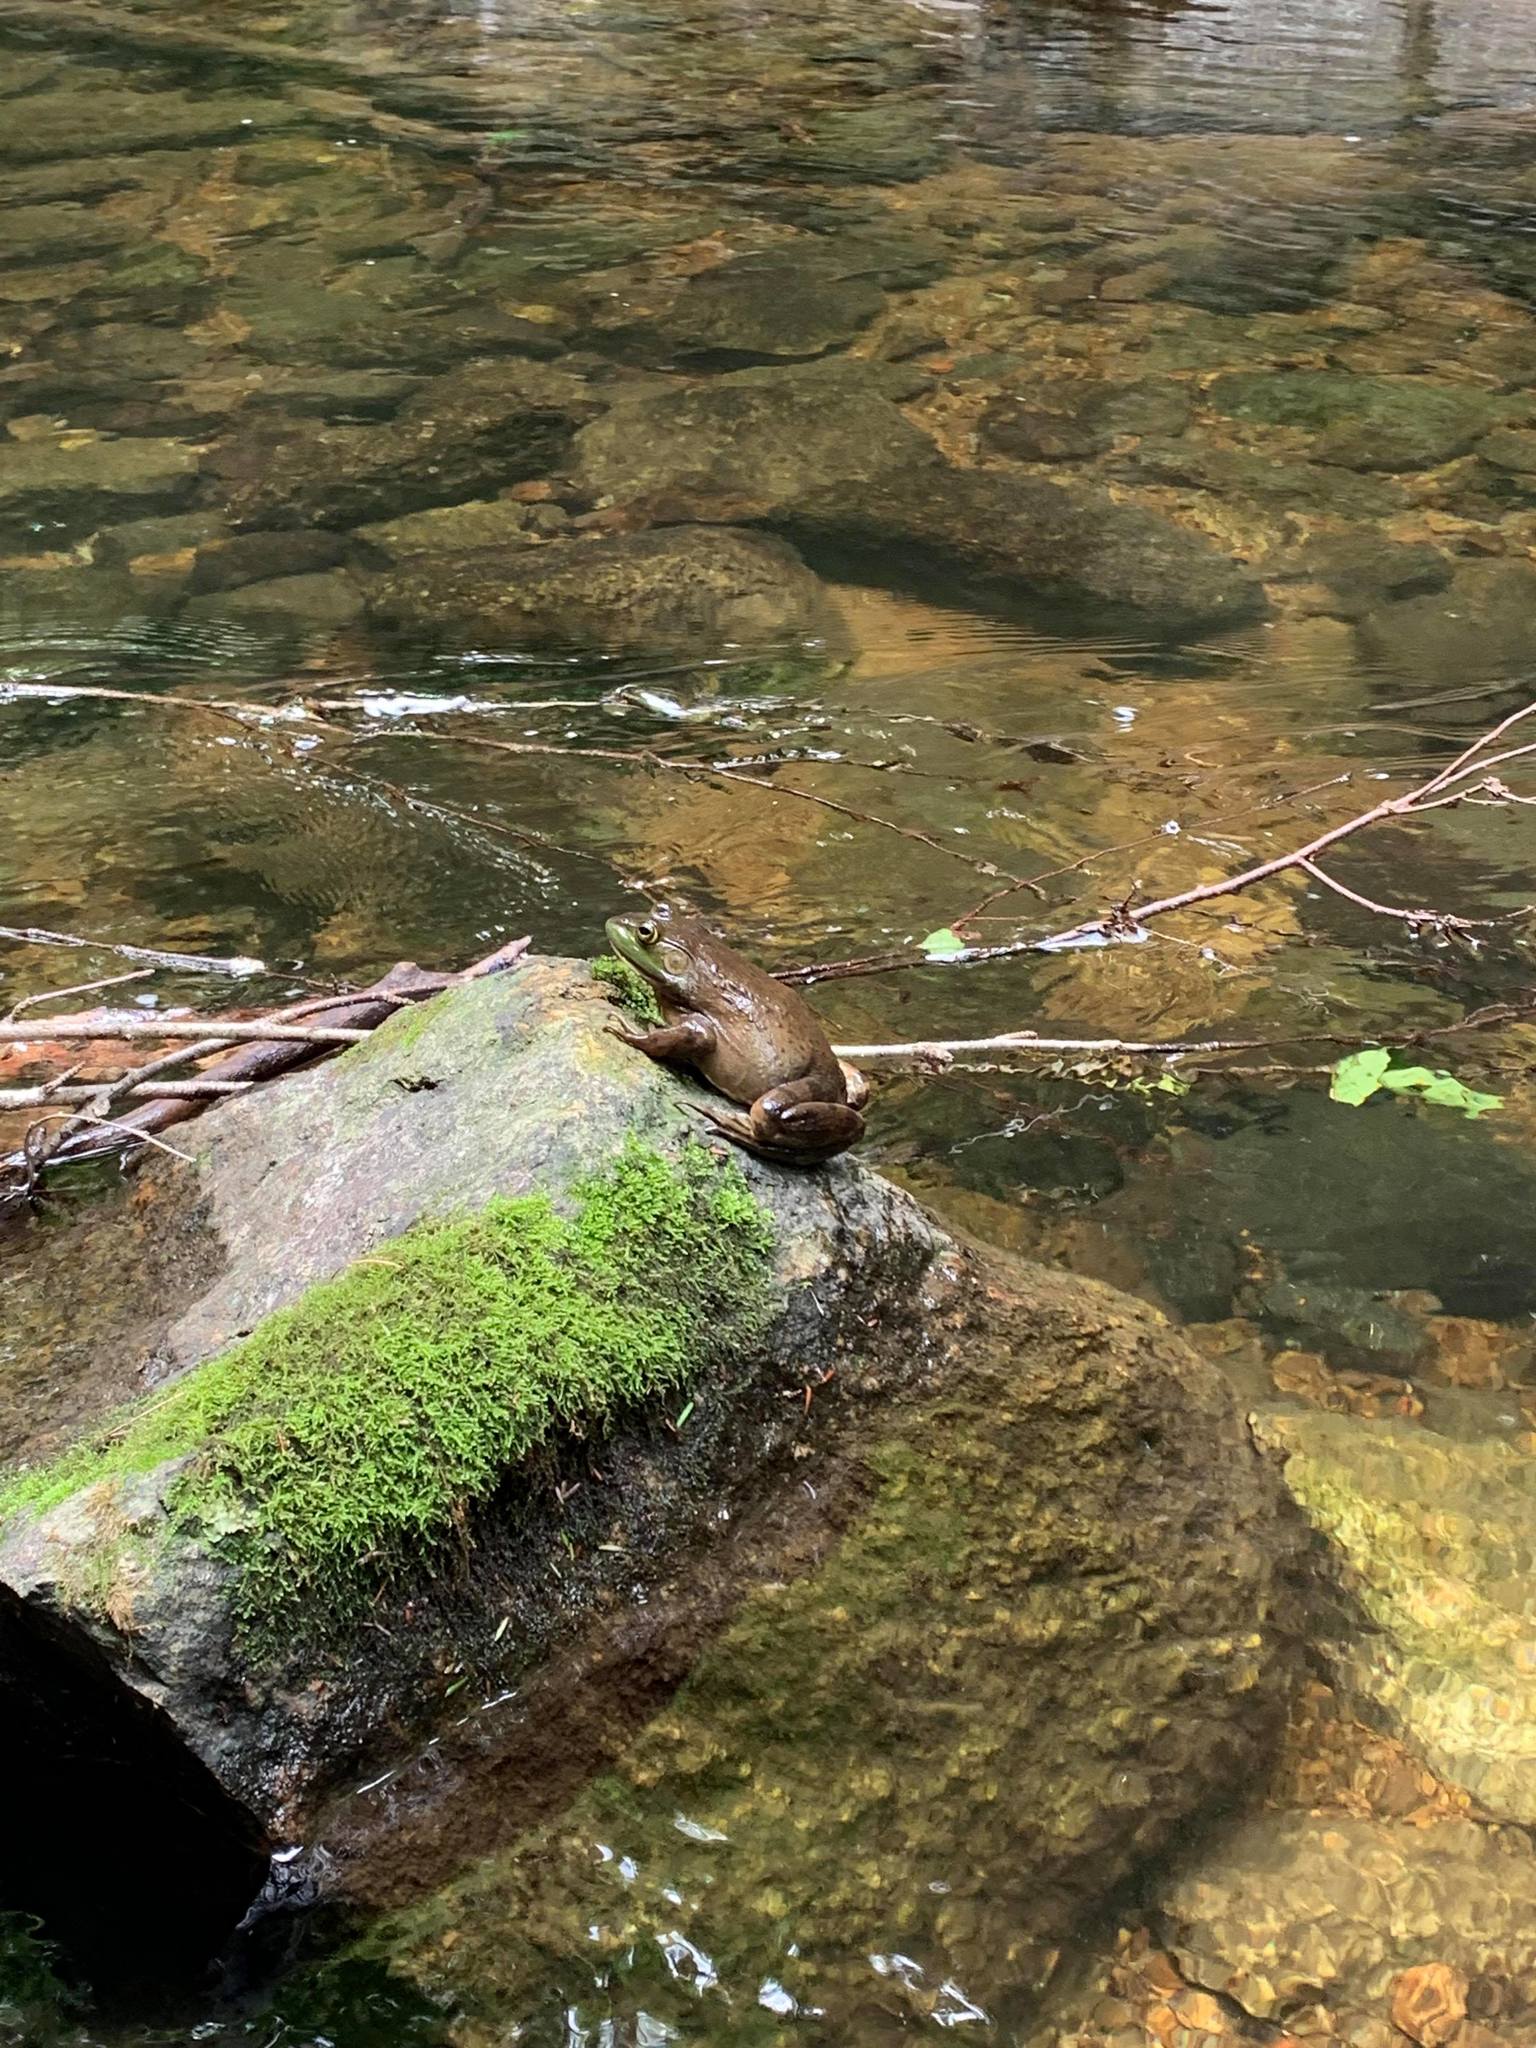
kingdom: Animalia
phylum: Chordata
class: Amphibia
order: Anura
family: Ranidae
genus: Lithobates
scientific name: Lithobates catesbeianus
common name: American bullfrog
